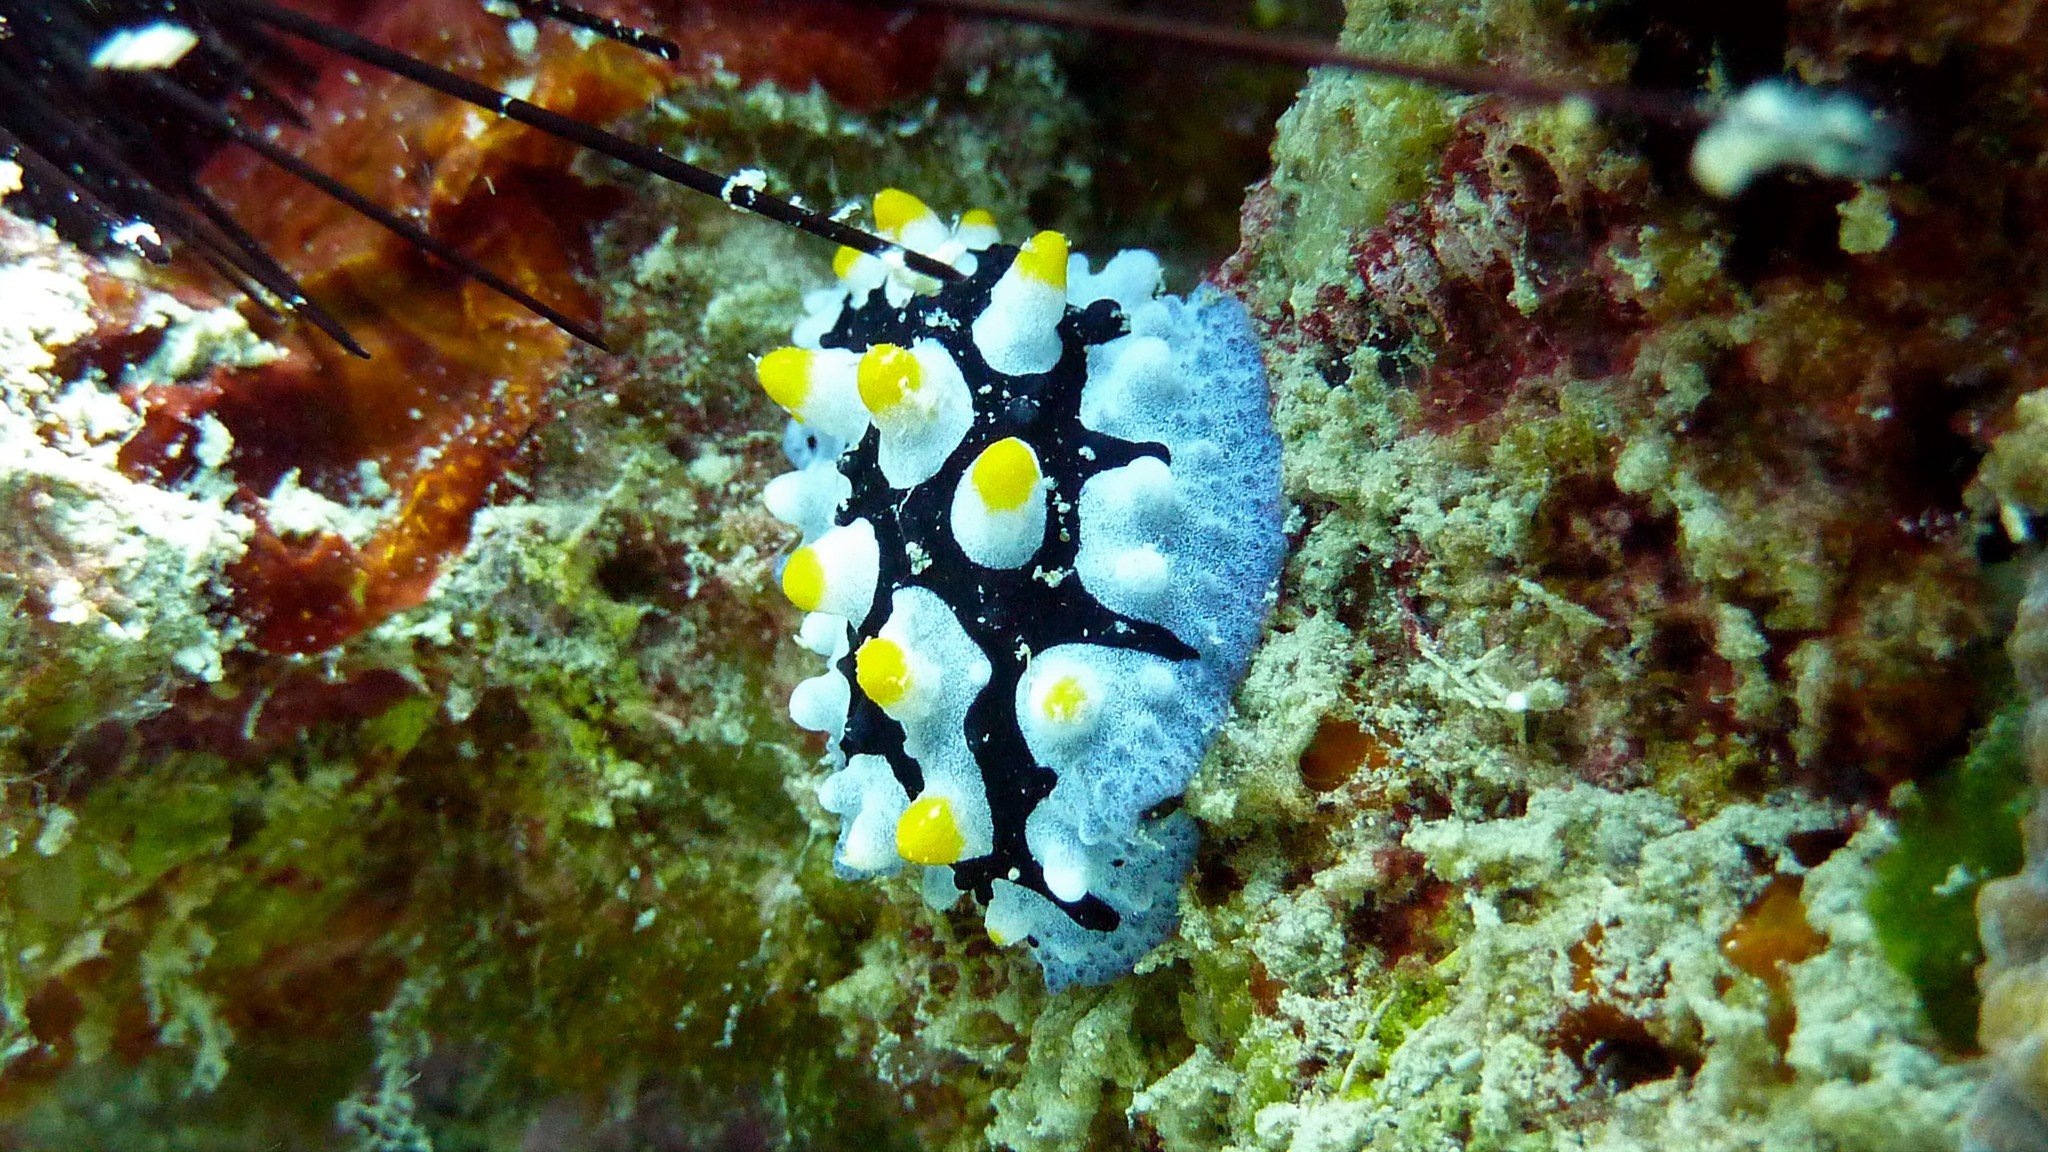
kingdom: Animalia
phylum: Mollusca
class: Gastropoda
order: Nudibranchia
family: Phyllidiidae
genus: Phyllidia
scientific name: Phyllidia picta
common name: Black-rayed phyllidia
